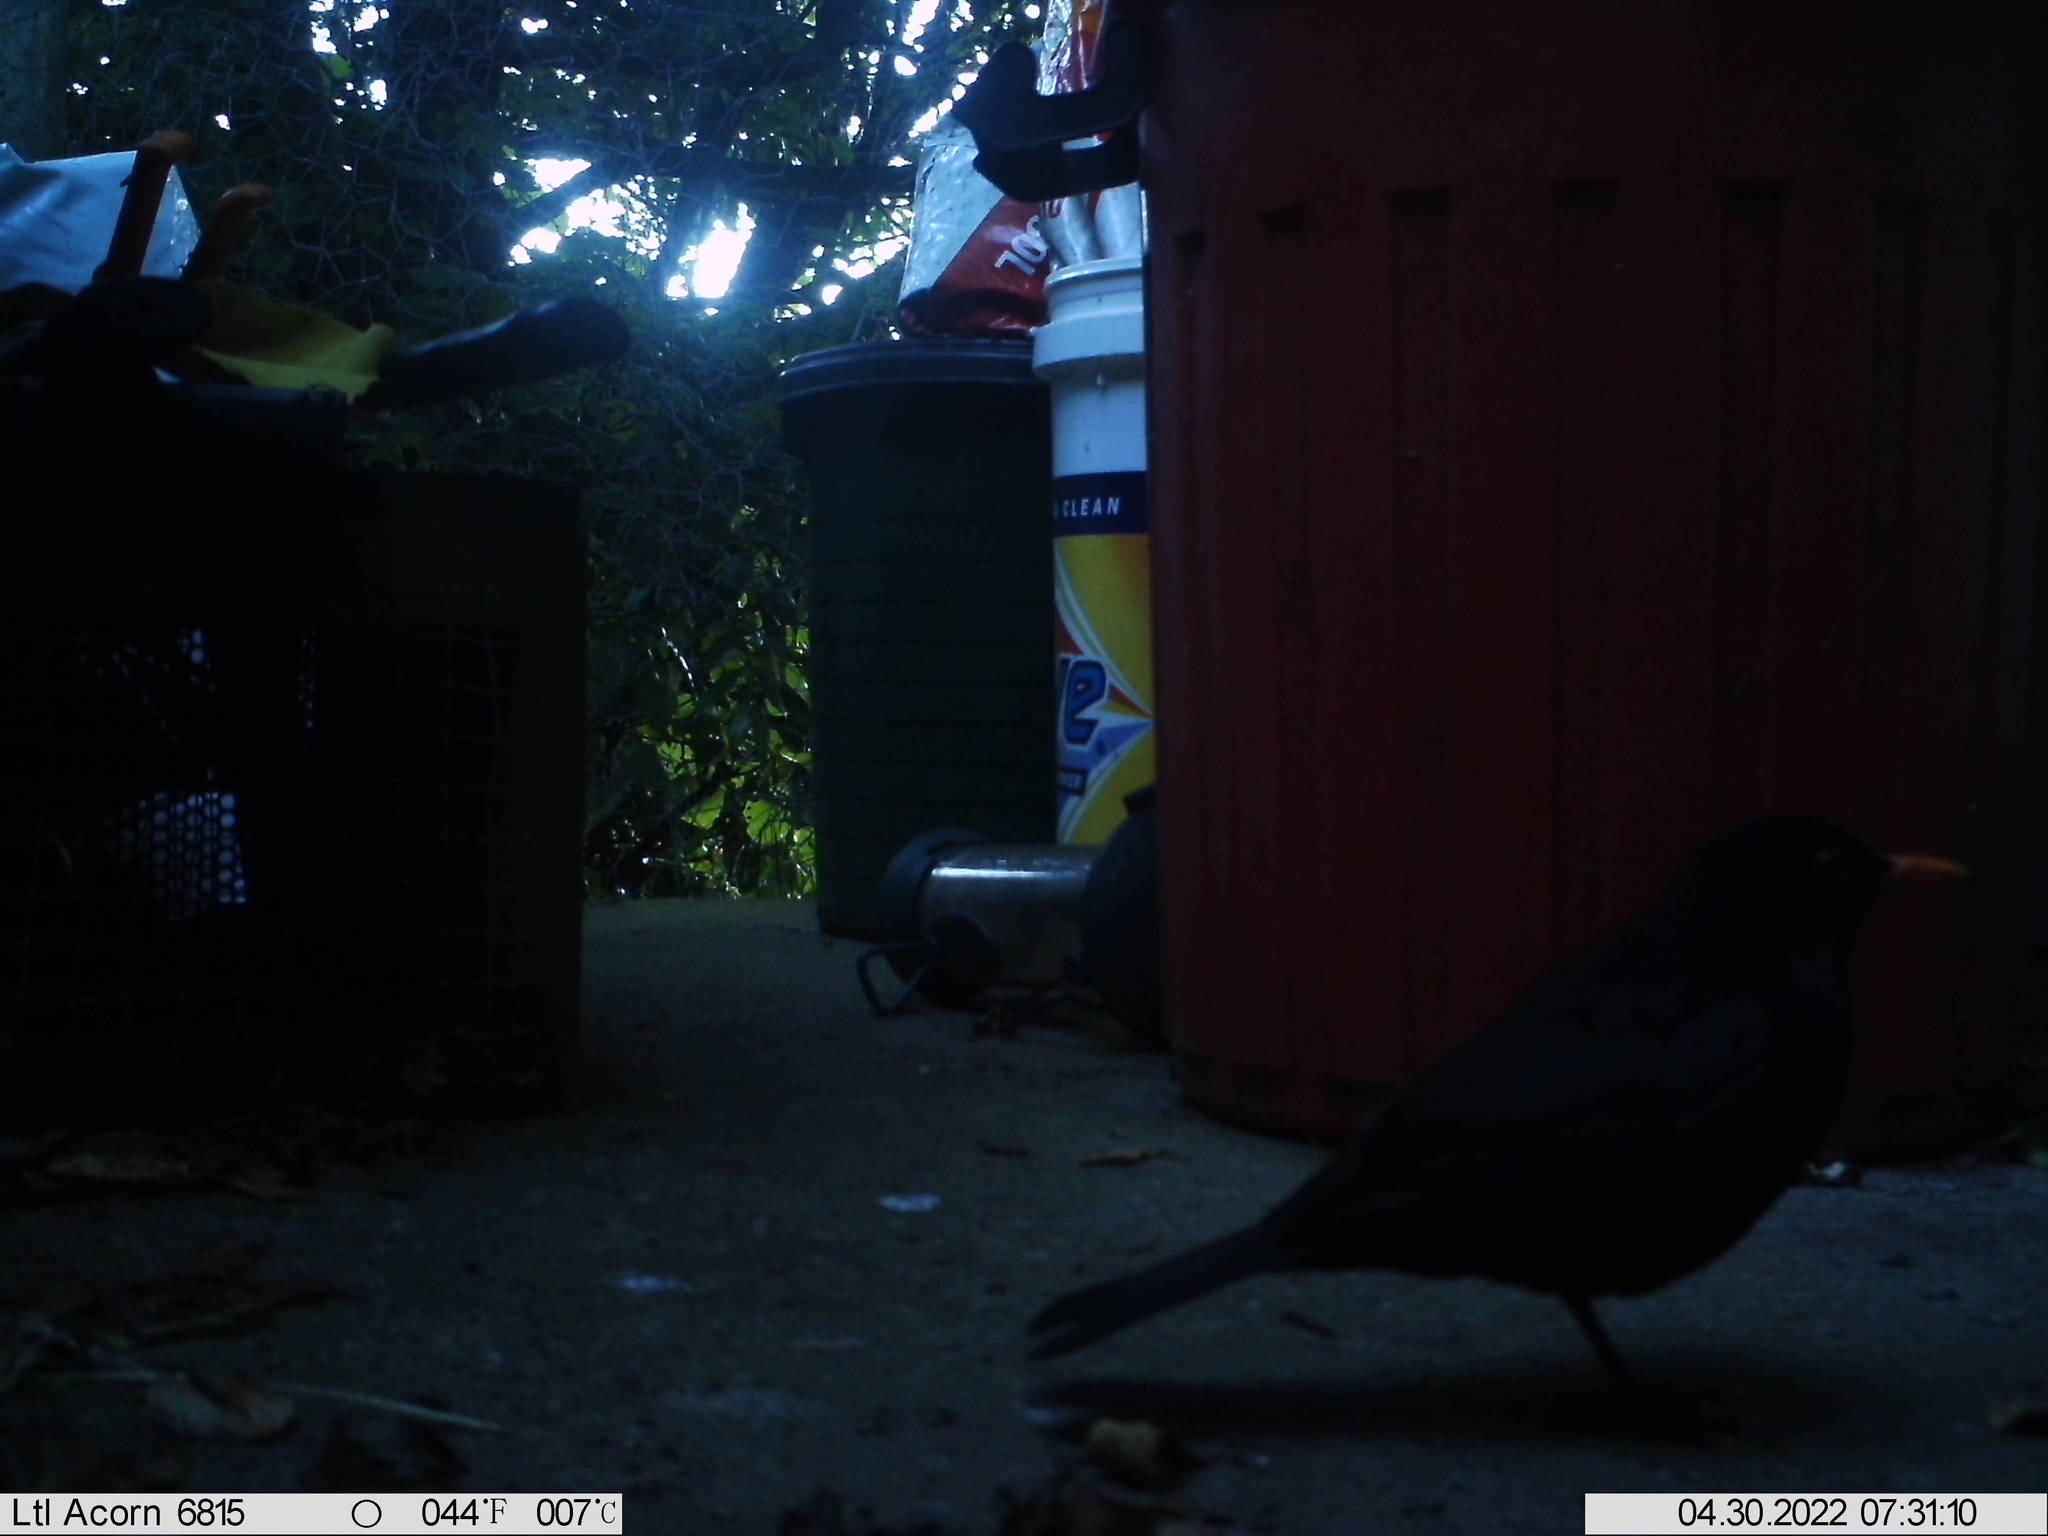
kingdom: Animalia
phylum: Chordata
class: Aves
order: Passeriformes
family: Turdidae
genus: Turdus
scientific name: Turdus merula
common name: Common blackbird
